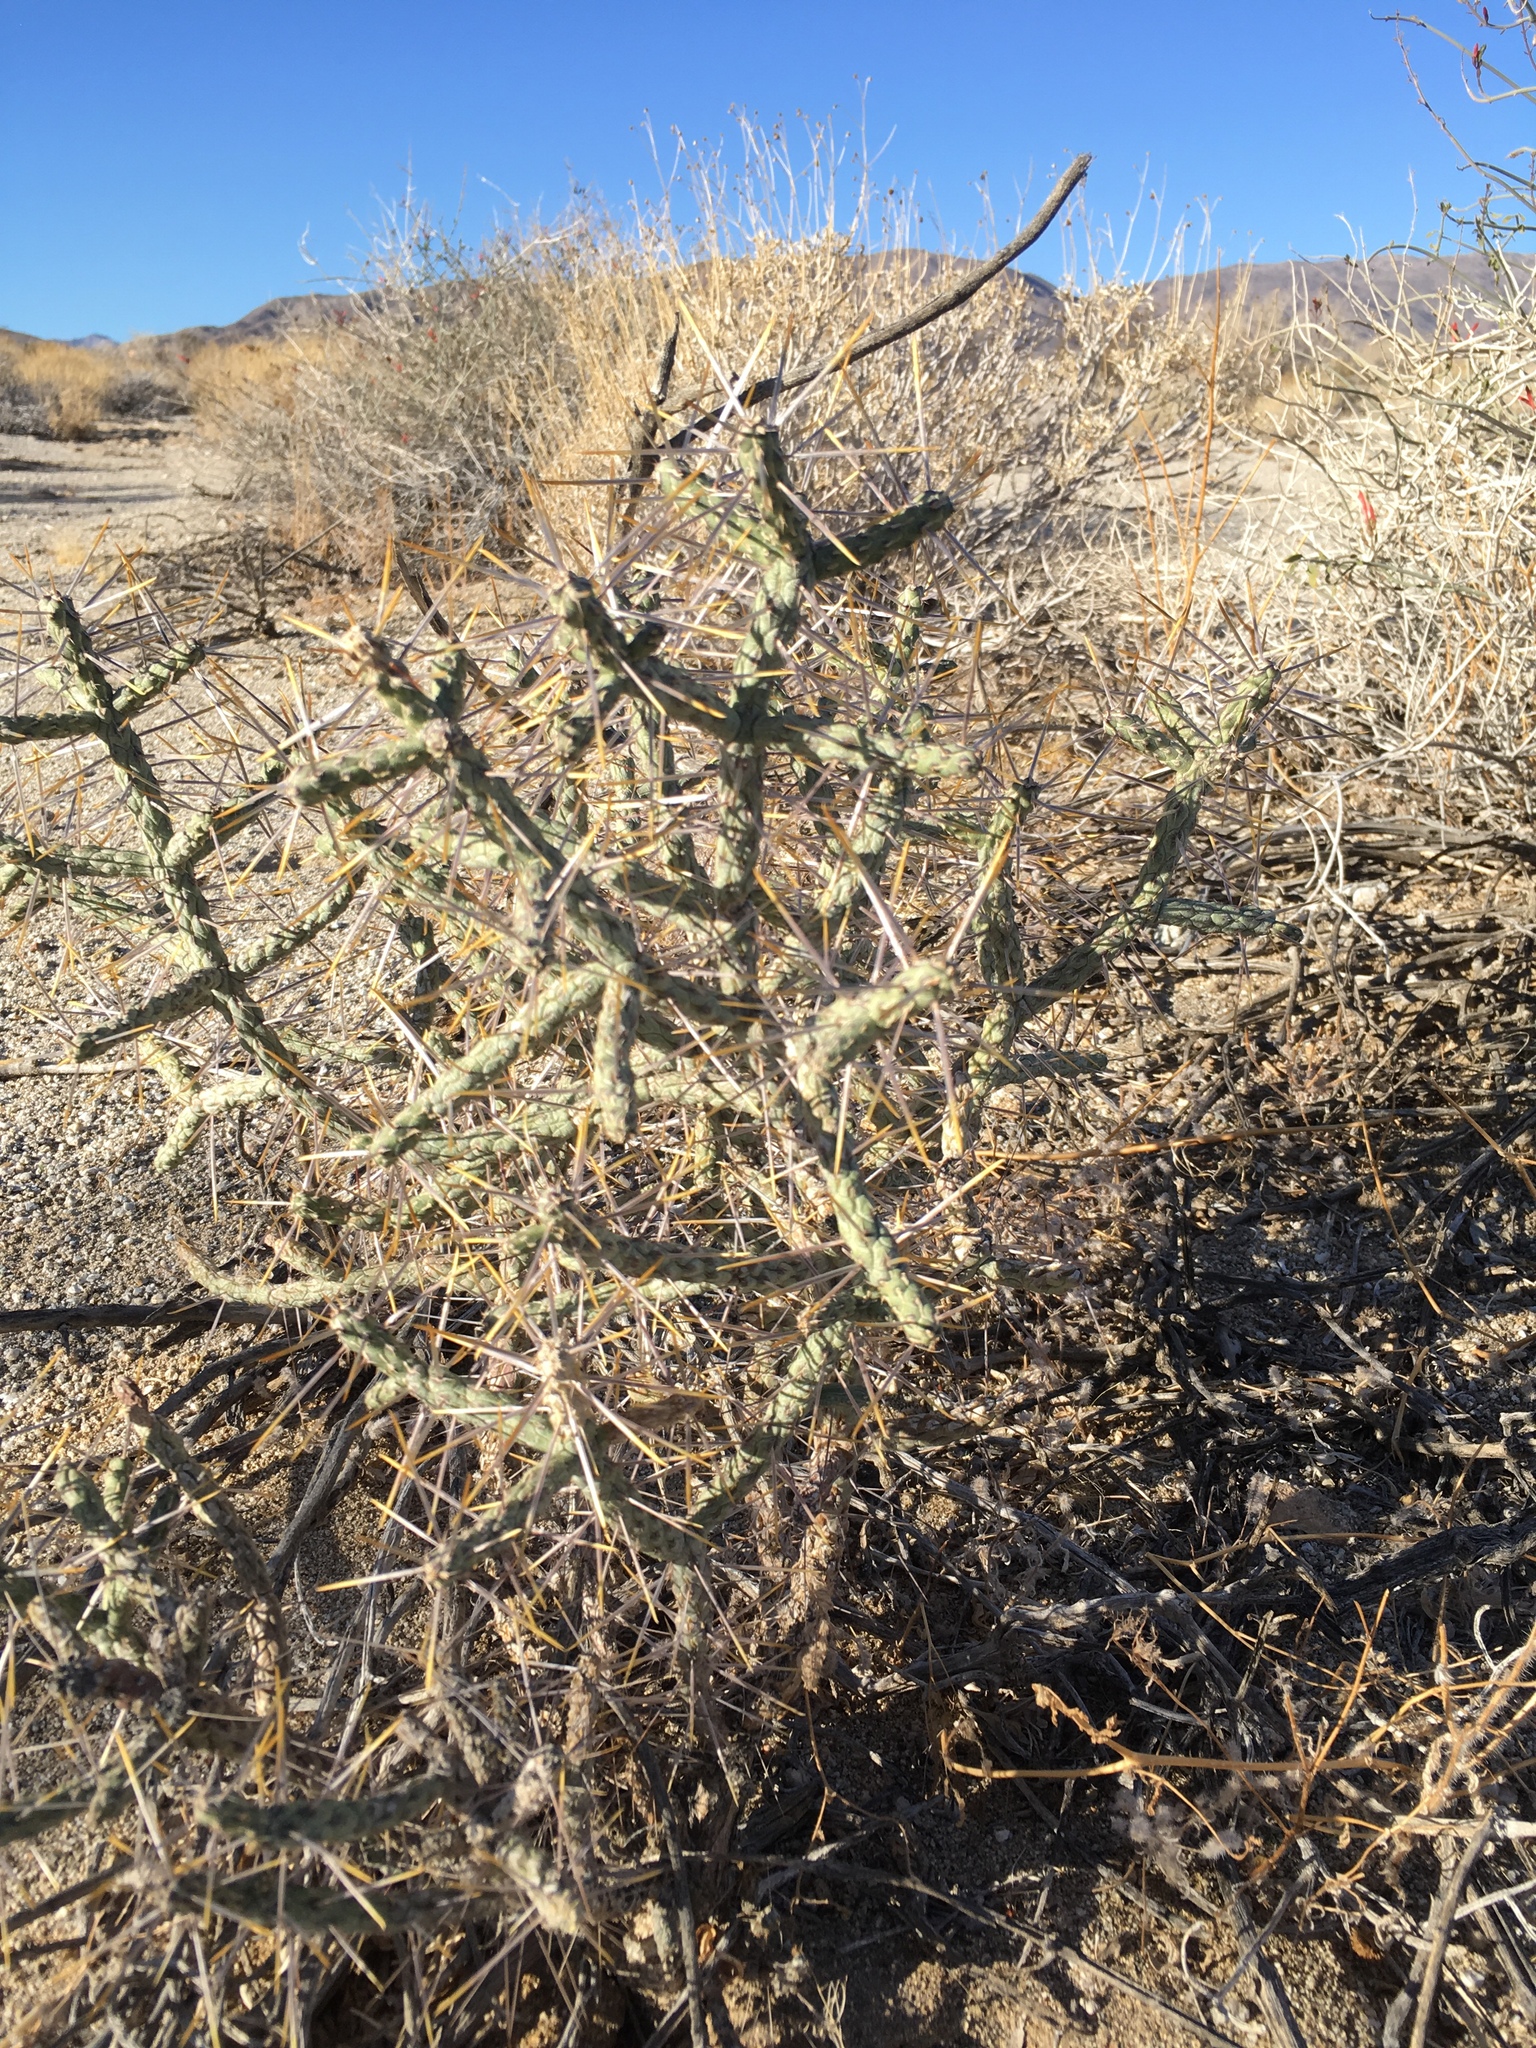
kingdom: Plantae
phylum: Tracheophyta
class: Magnoliopsida
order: Caryophyllales
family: Cactaceae
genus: Cylindropuntia
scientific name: Cylindropuntia ramosissima
